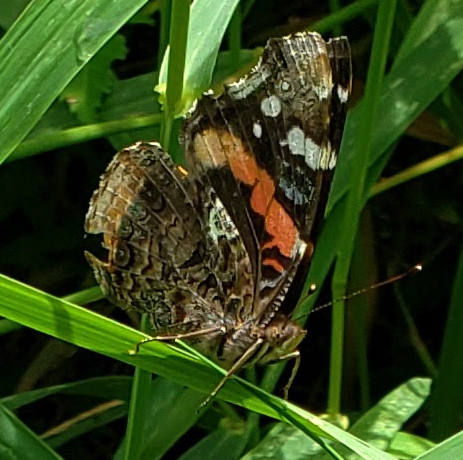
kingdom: Animalia
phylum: Arthropoda
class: Insecta
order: Lepidoptera
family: Nymphalidae
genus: Vanessa
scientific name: Vanessa atalanta
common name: Red admiral
